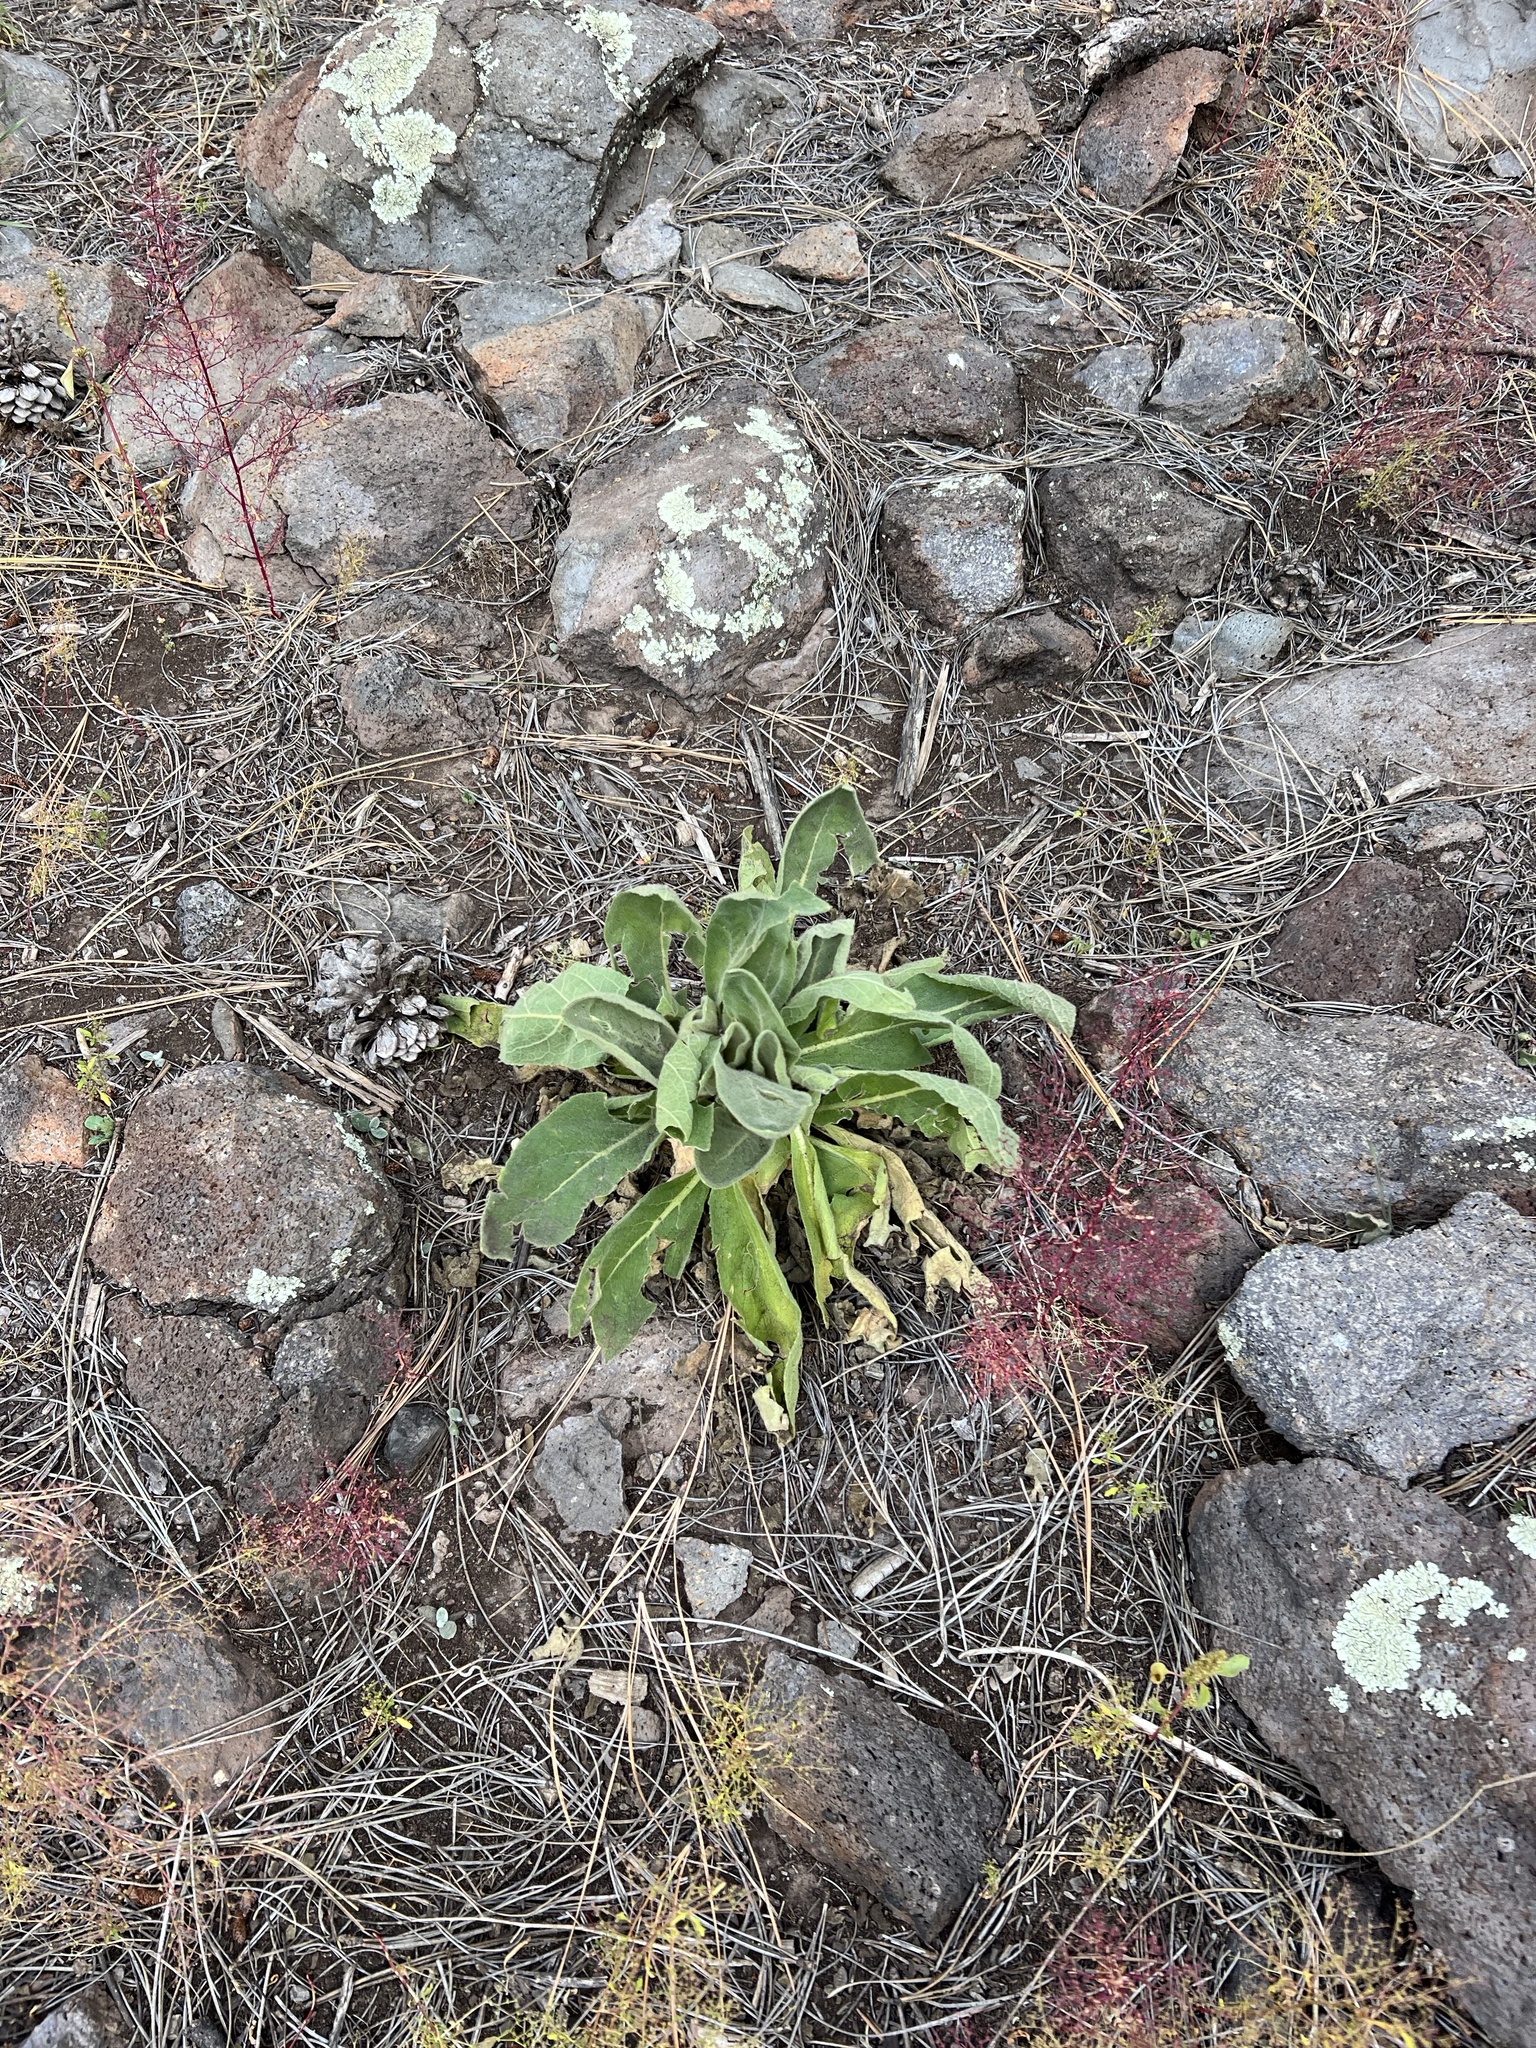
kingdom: Plantae
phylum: Tracheophyta
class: Magnoliopsida
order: Lamiales
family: Scrophulariaceae
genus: Verbascum
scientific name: Verbascum thapsus
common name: Common mullein
